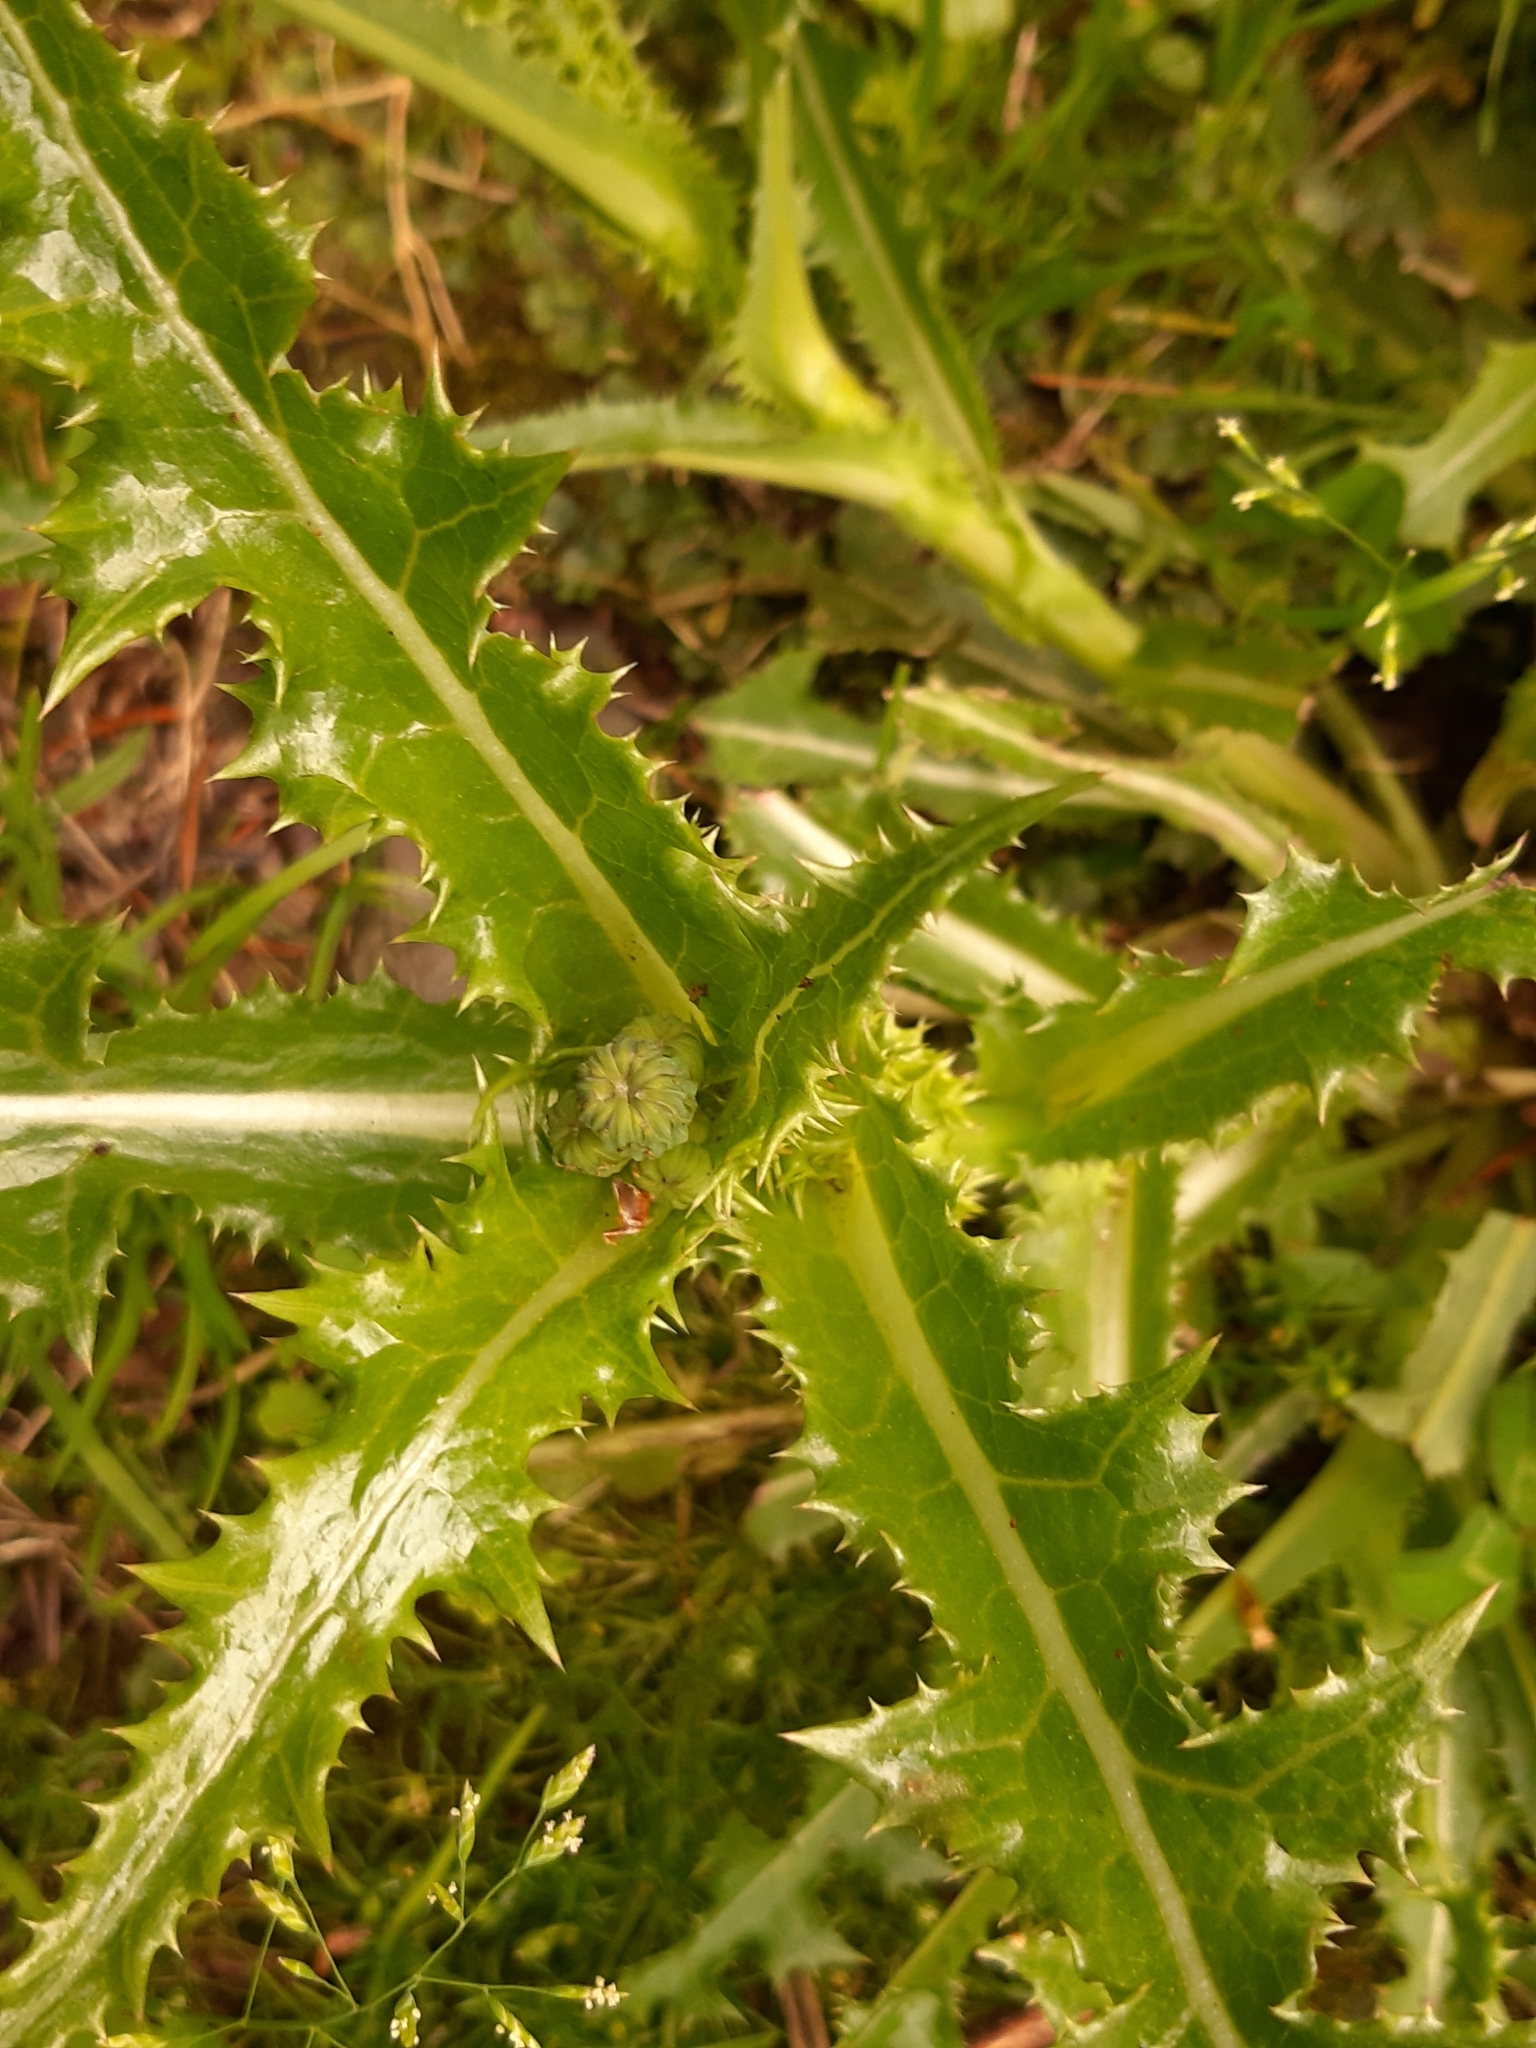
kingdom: Plantae
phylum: Tracheophyta
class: Magnoliopsida
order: Asterales
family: Asteraceae
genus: Sonchus
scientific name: Sonchus asper
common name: Prickly sow-thistle
